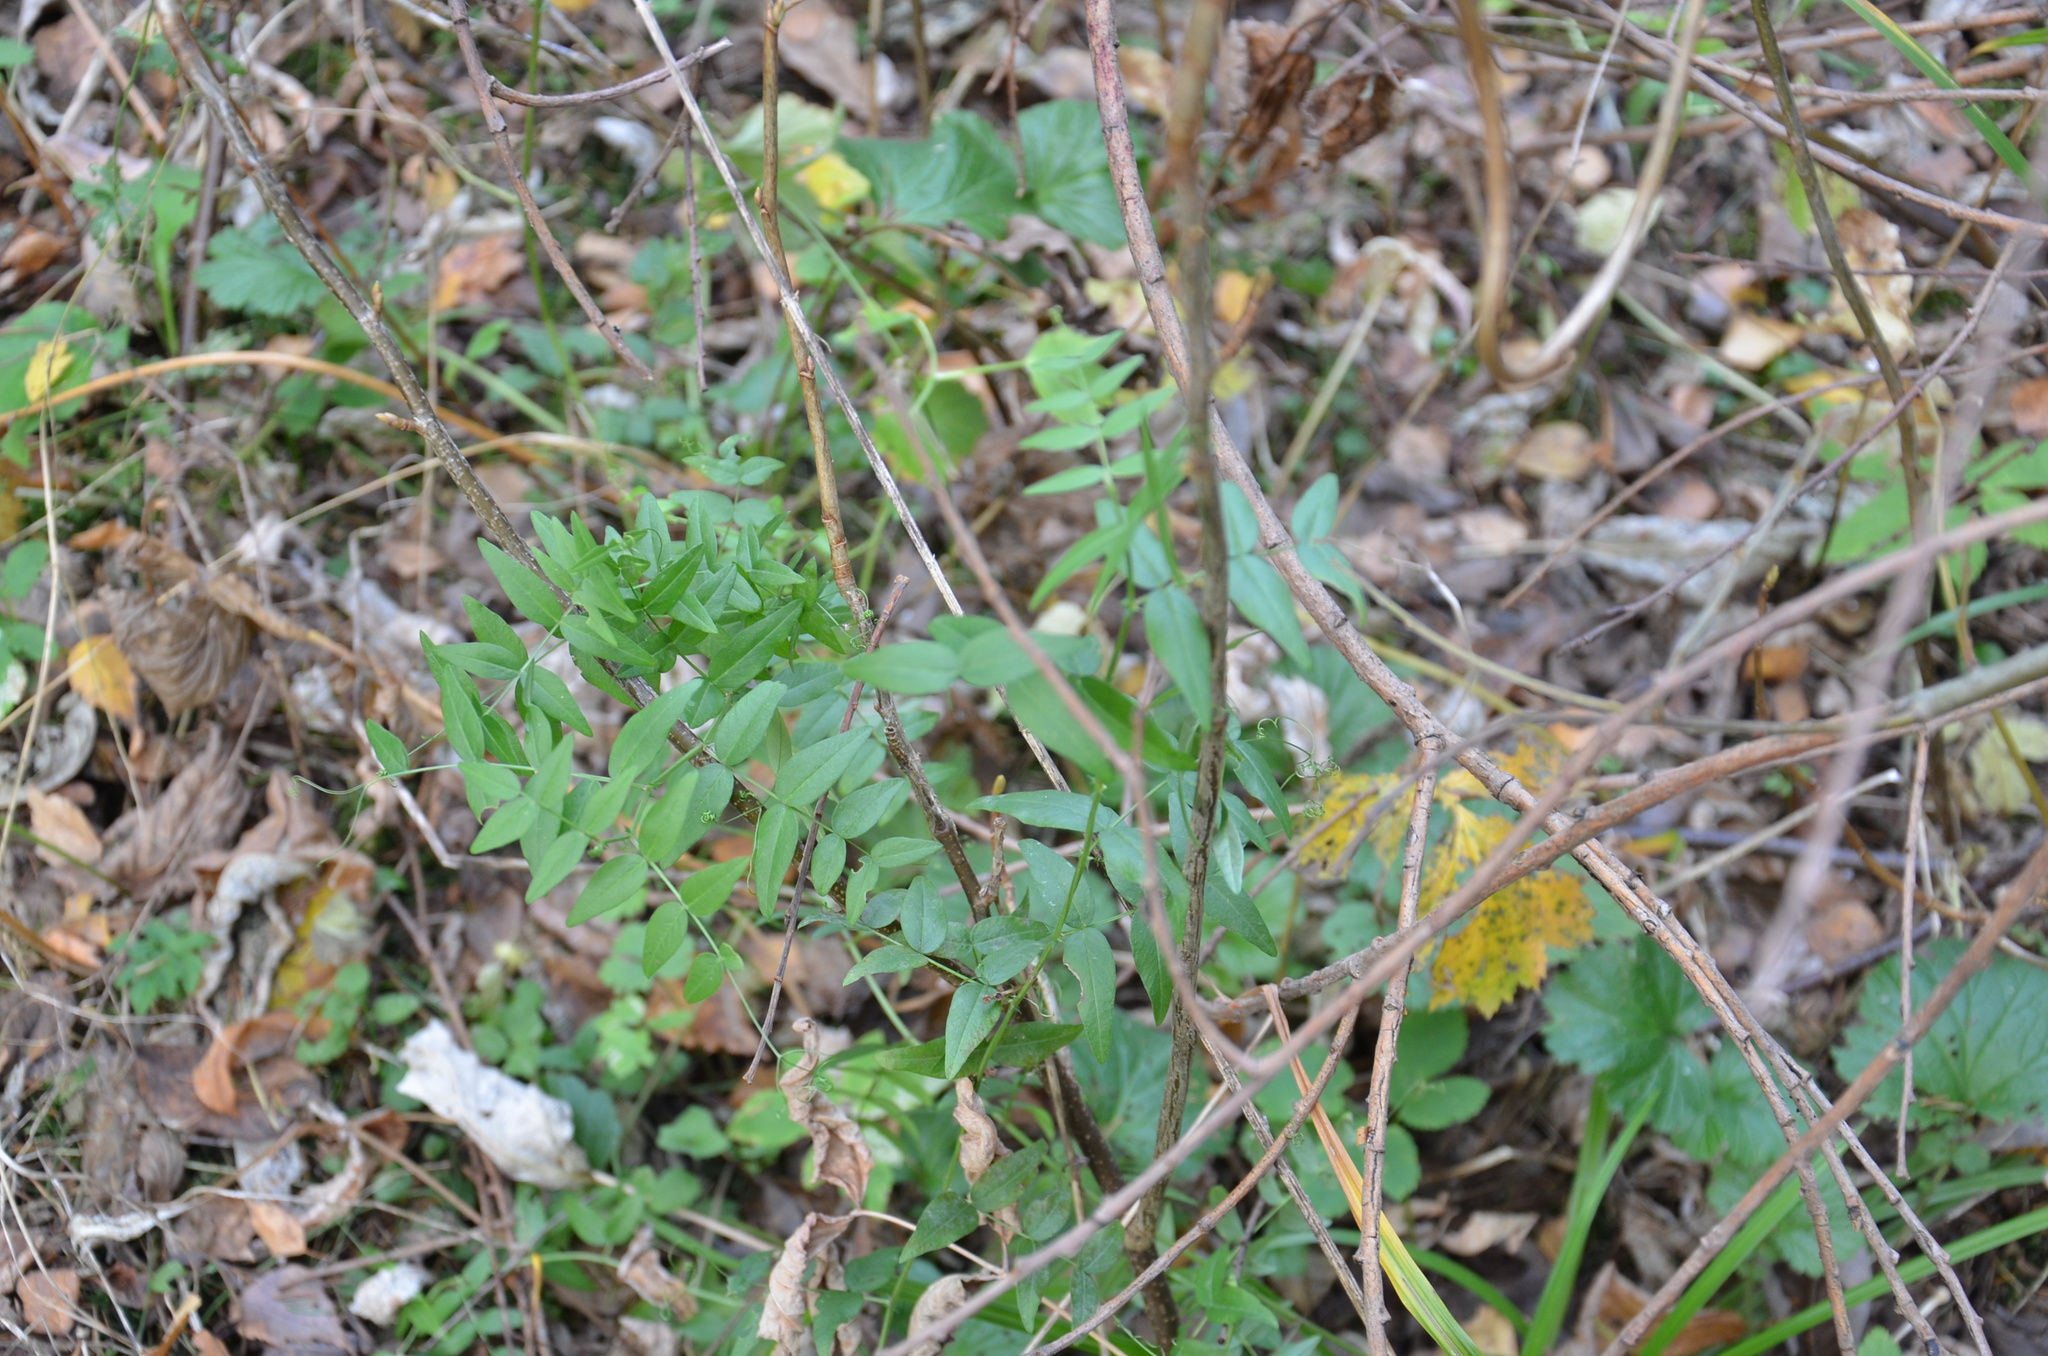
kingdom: Plantae
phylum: Tracheophyta
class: Magnoliopsida
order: Fabales
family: Fabaceae
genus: Vicia
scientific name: Vicia sepium
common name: Bush vetch
